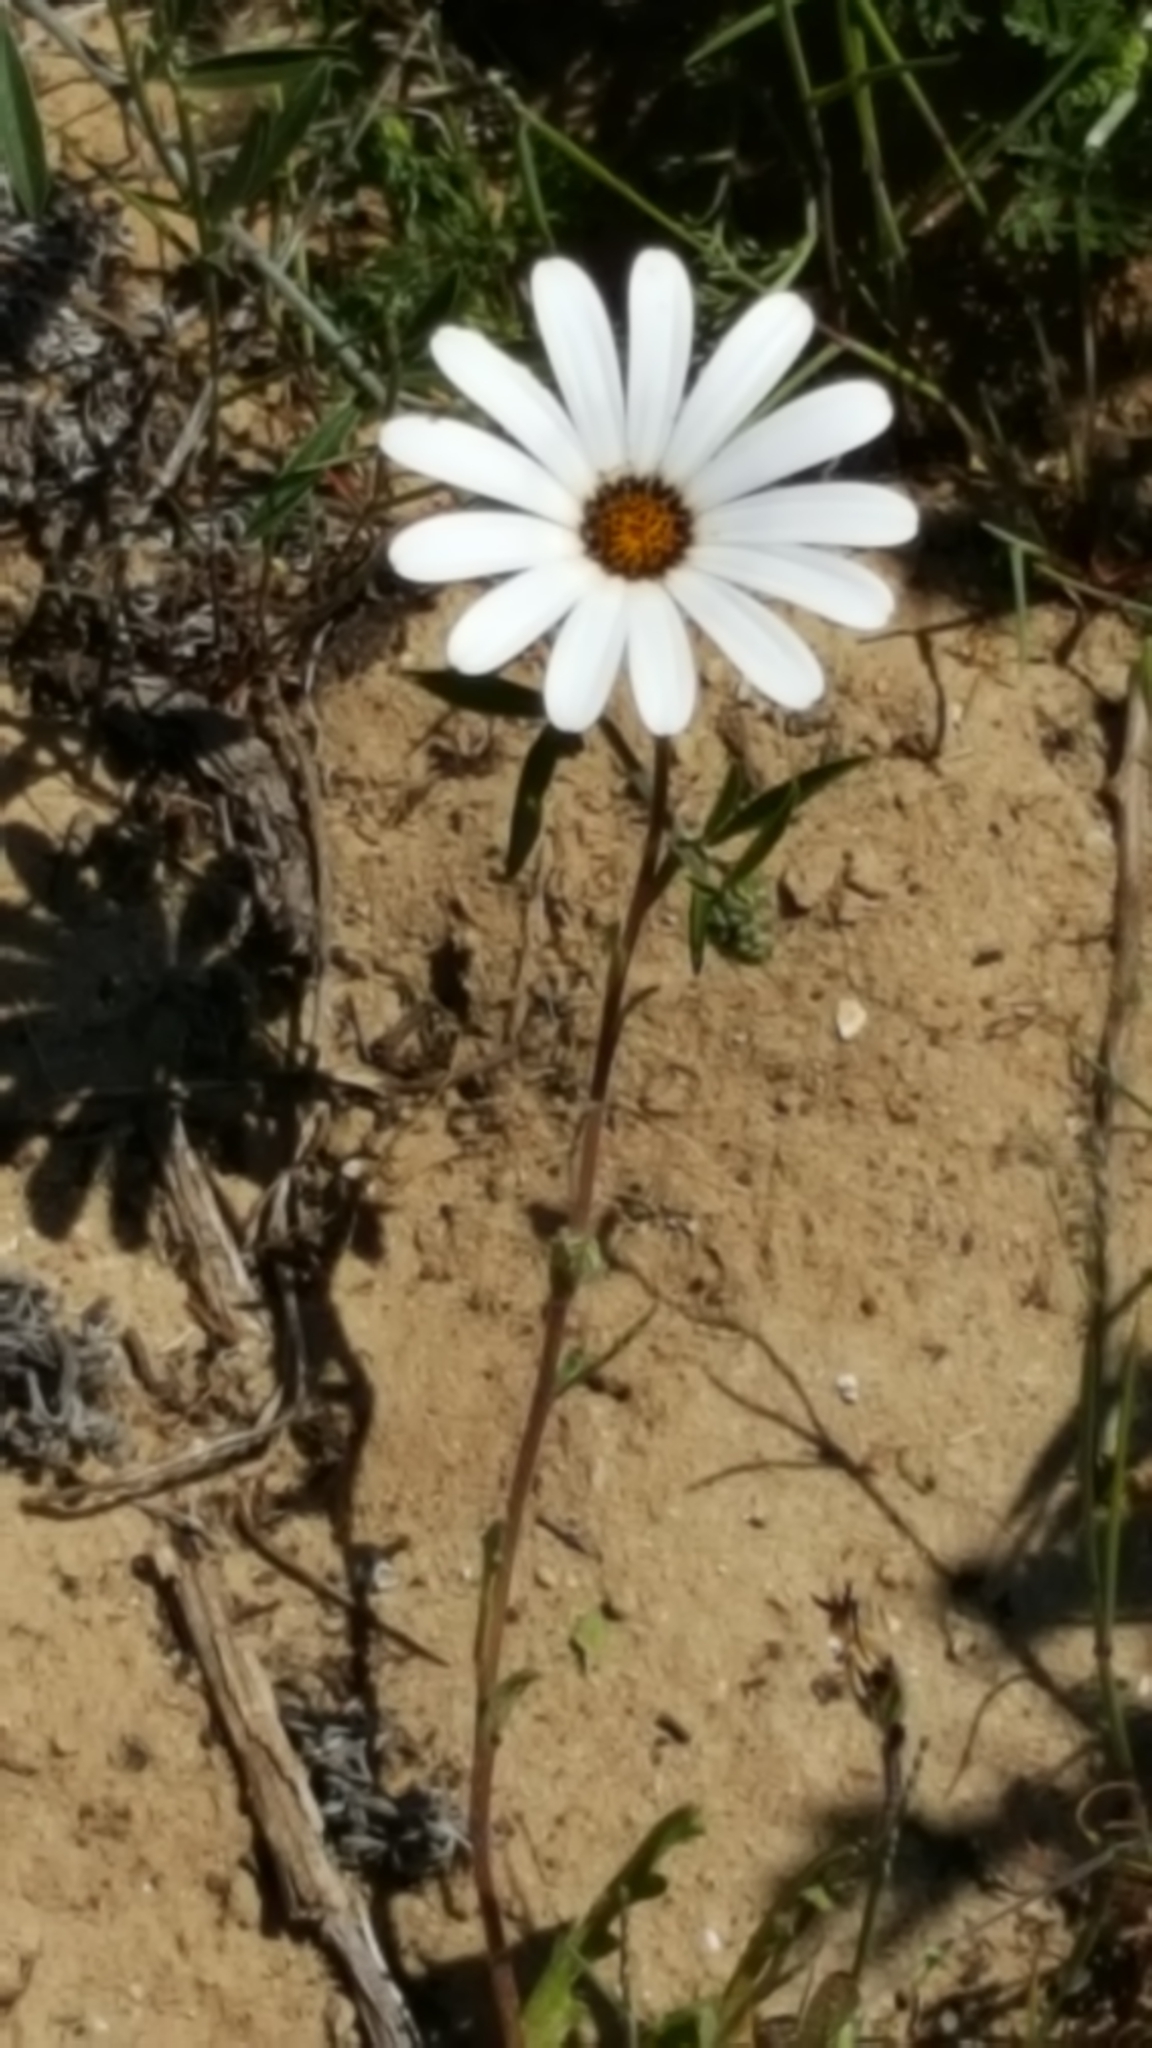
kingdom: Plantae
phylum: Tracheophyta
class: Magnoliopsida
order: Asterales
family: Asteraceae
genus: Dimorphotheca
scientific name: Dimorphotheca pluvialis
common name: Weather prophet
